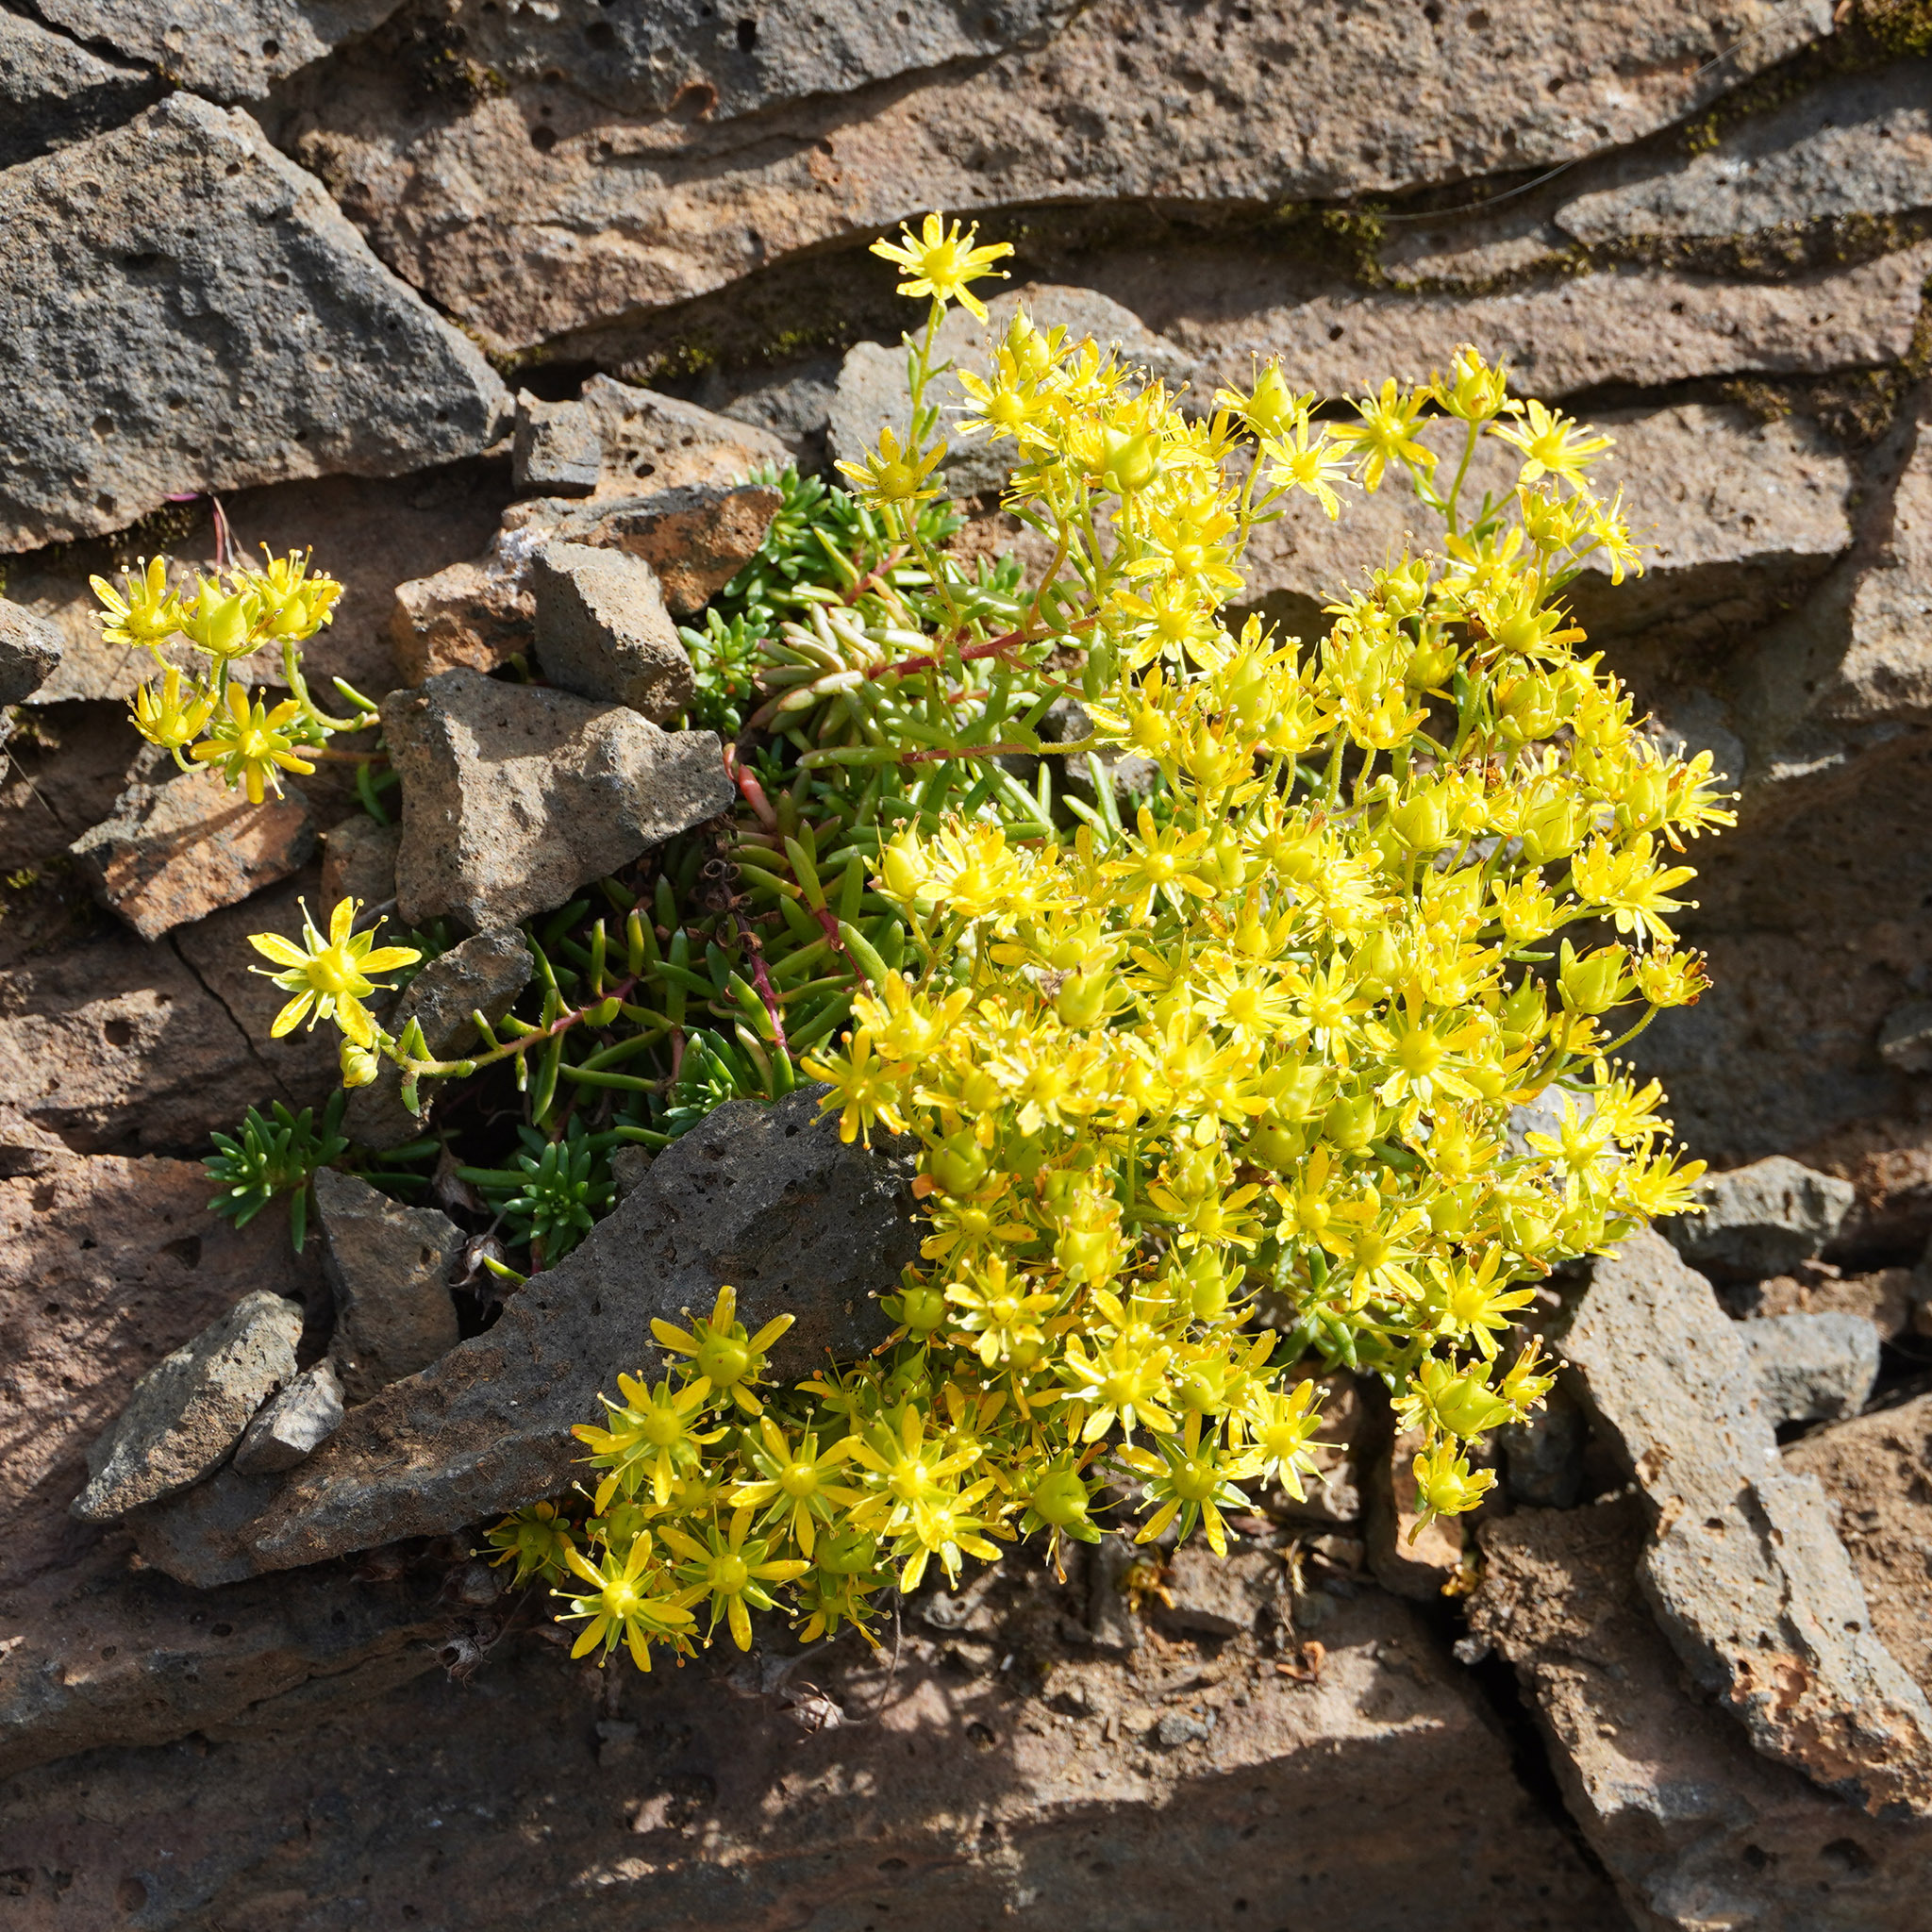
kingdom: Plantae
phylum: Tracheophyta
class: Magnoliopsida
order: Saxifragales
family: Saxifragaceae
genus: Saxifraga
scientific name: Saxifraga aizoides
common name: Yellow mountain saxifrage
